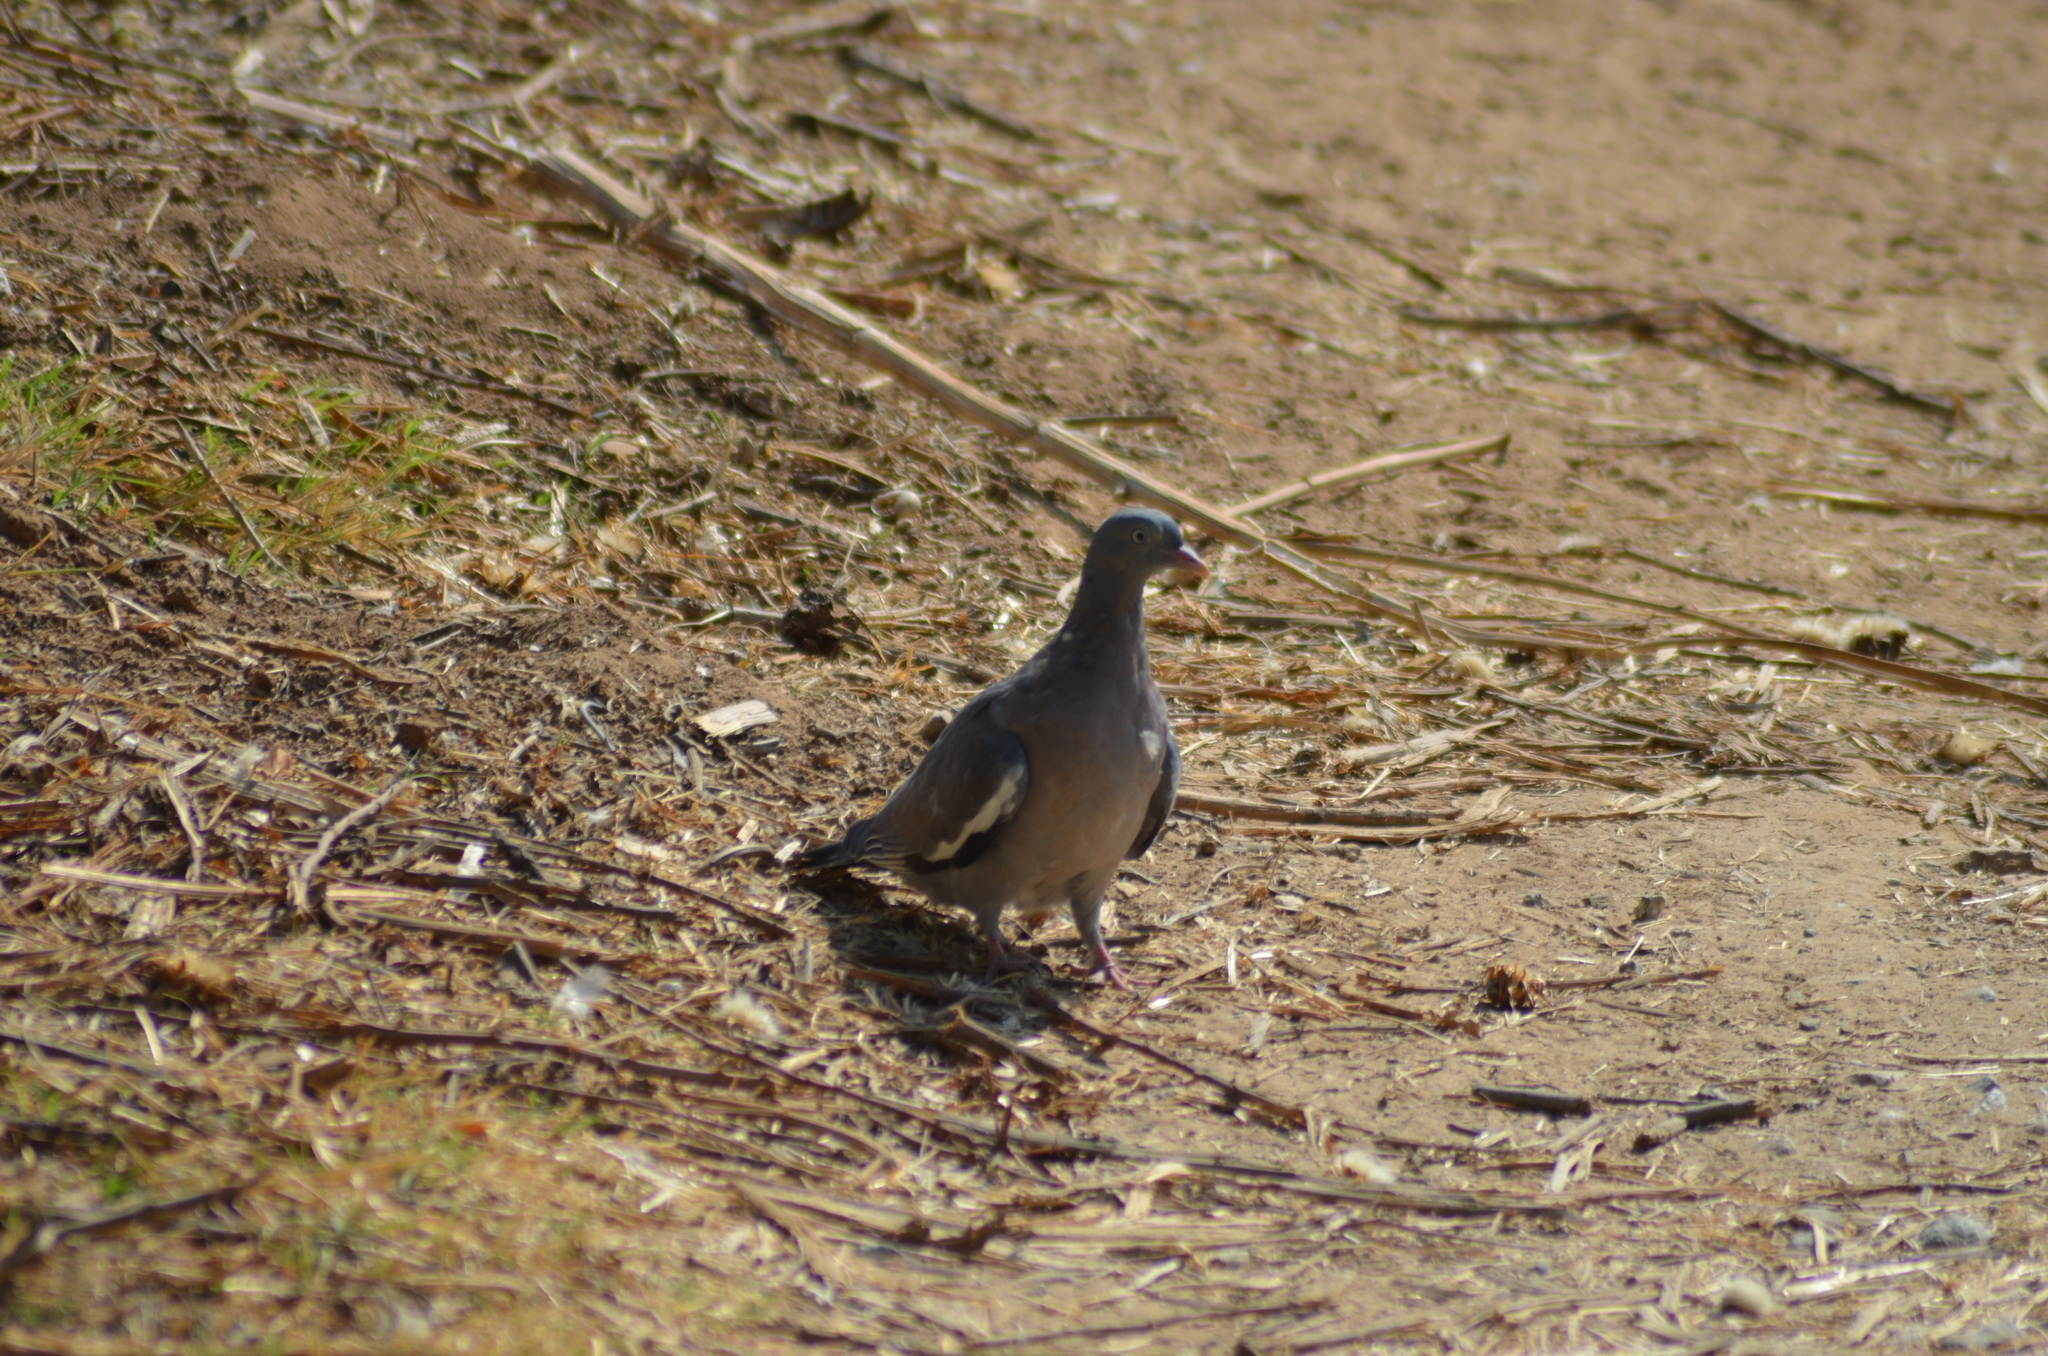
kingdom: Animalia
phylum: Chordata
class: Aves
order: Columbiformes
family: Columbidae
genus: Columba
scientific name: Columba palumbus
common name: Common wood pigeon
